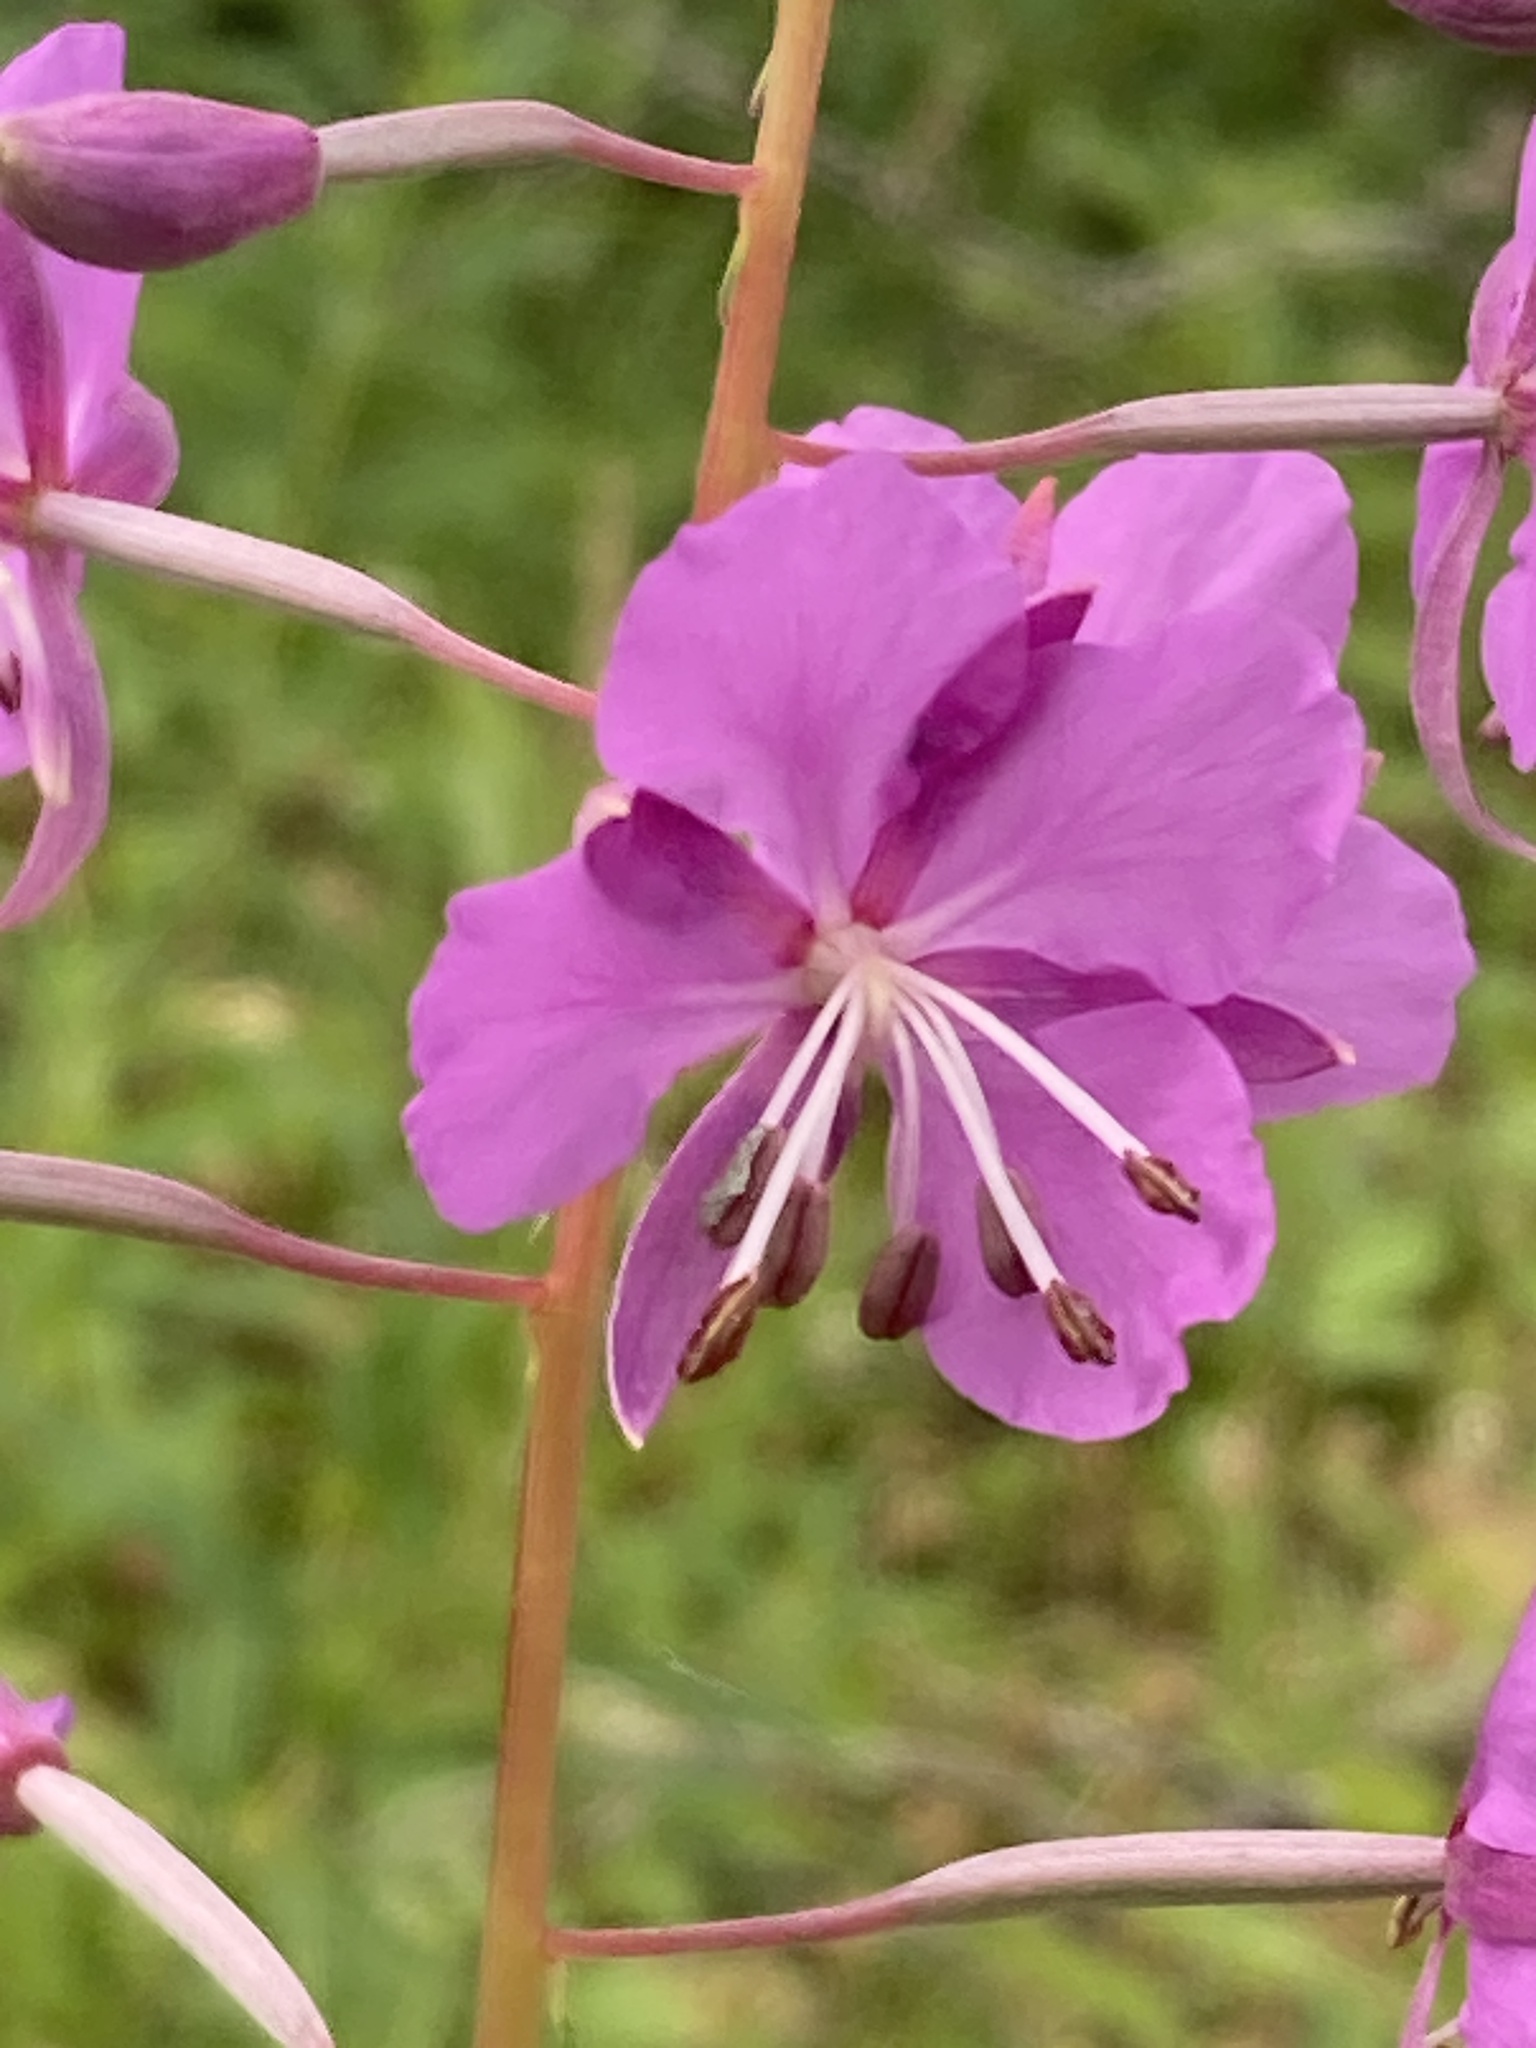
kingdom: Plantae
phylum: Tracheophyta
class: Magnoliopsida
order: Myrtales
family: Onagraceae
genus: Chamaenerion
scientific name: Chamaenerion angustifolium
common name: Fireweed
